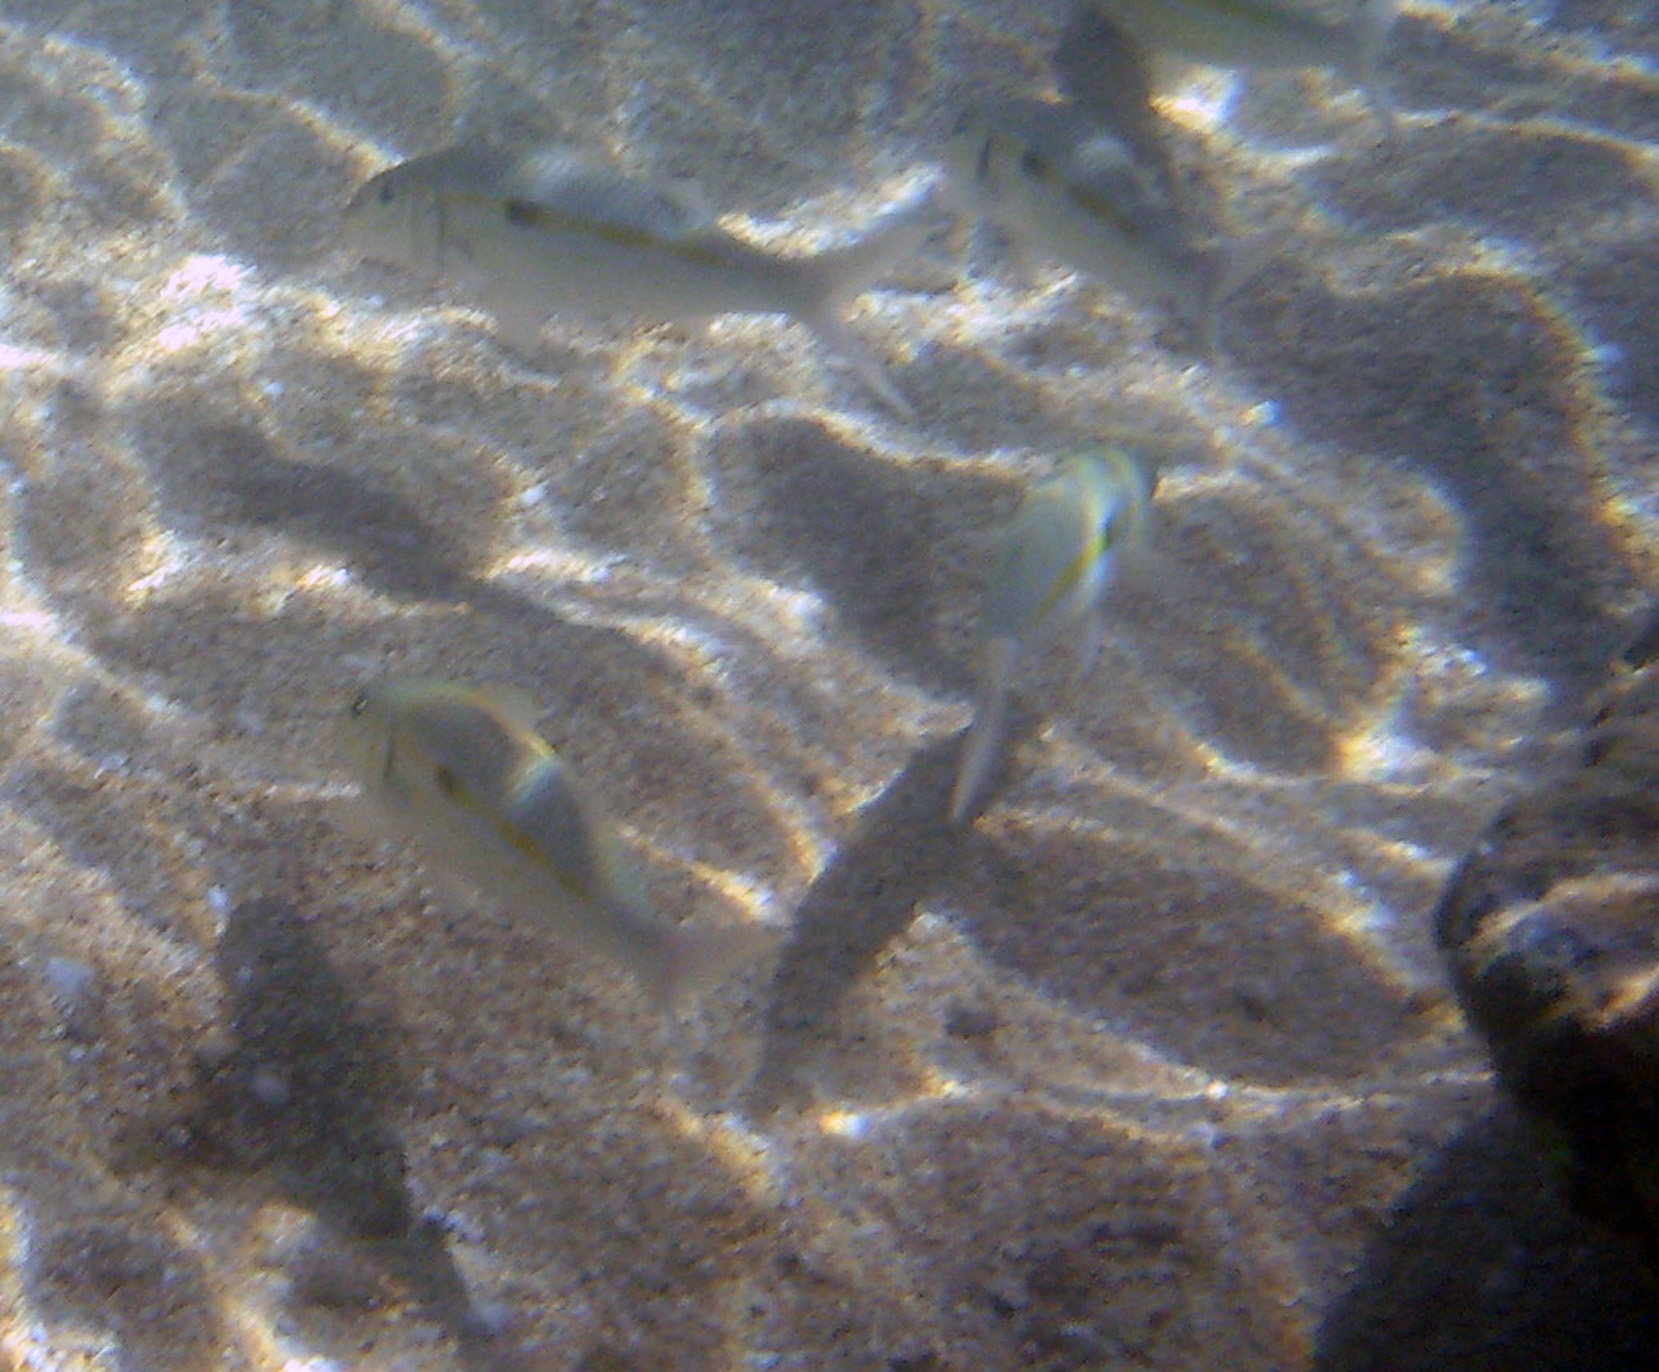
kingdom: Animalia
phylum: Chordata
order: Perciformes
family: Mullidae
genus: Mulloidichthys
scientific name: Mulloidichthys flavolineatus
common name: Yellowstripe goatfish
